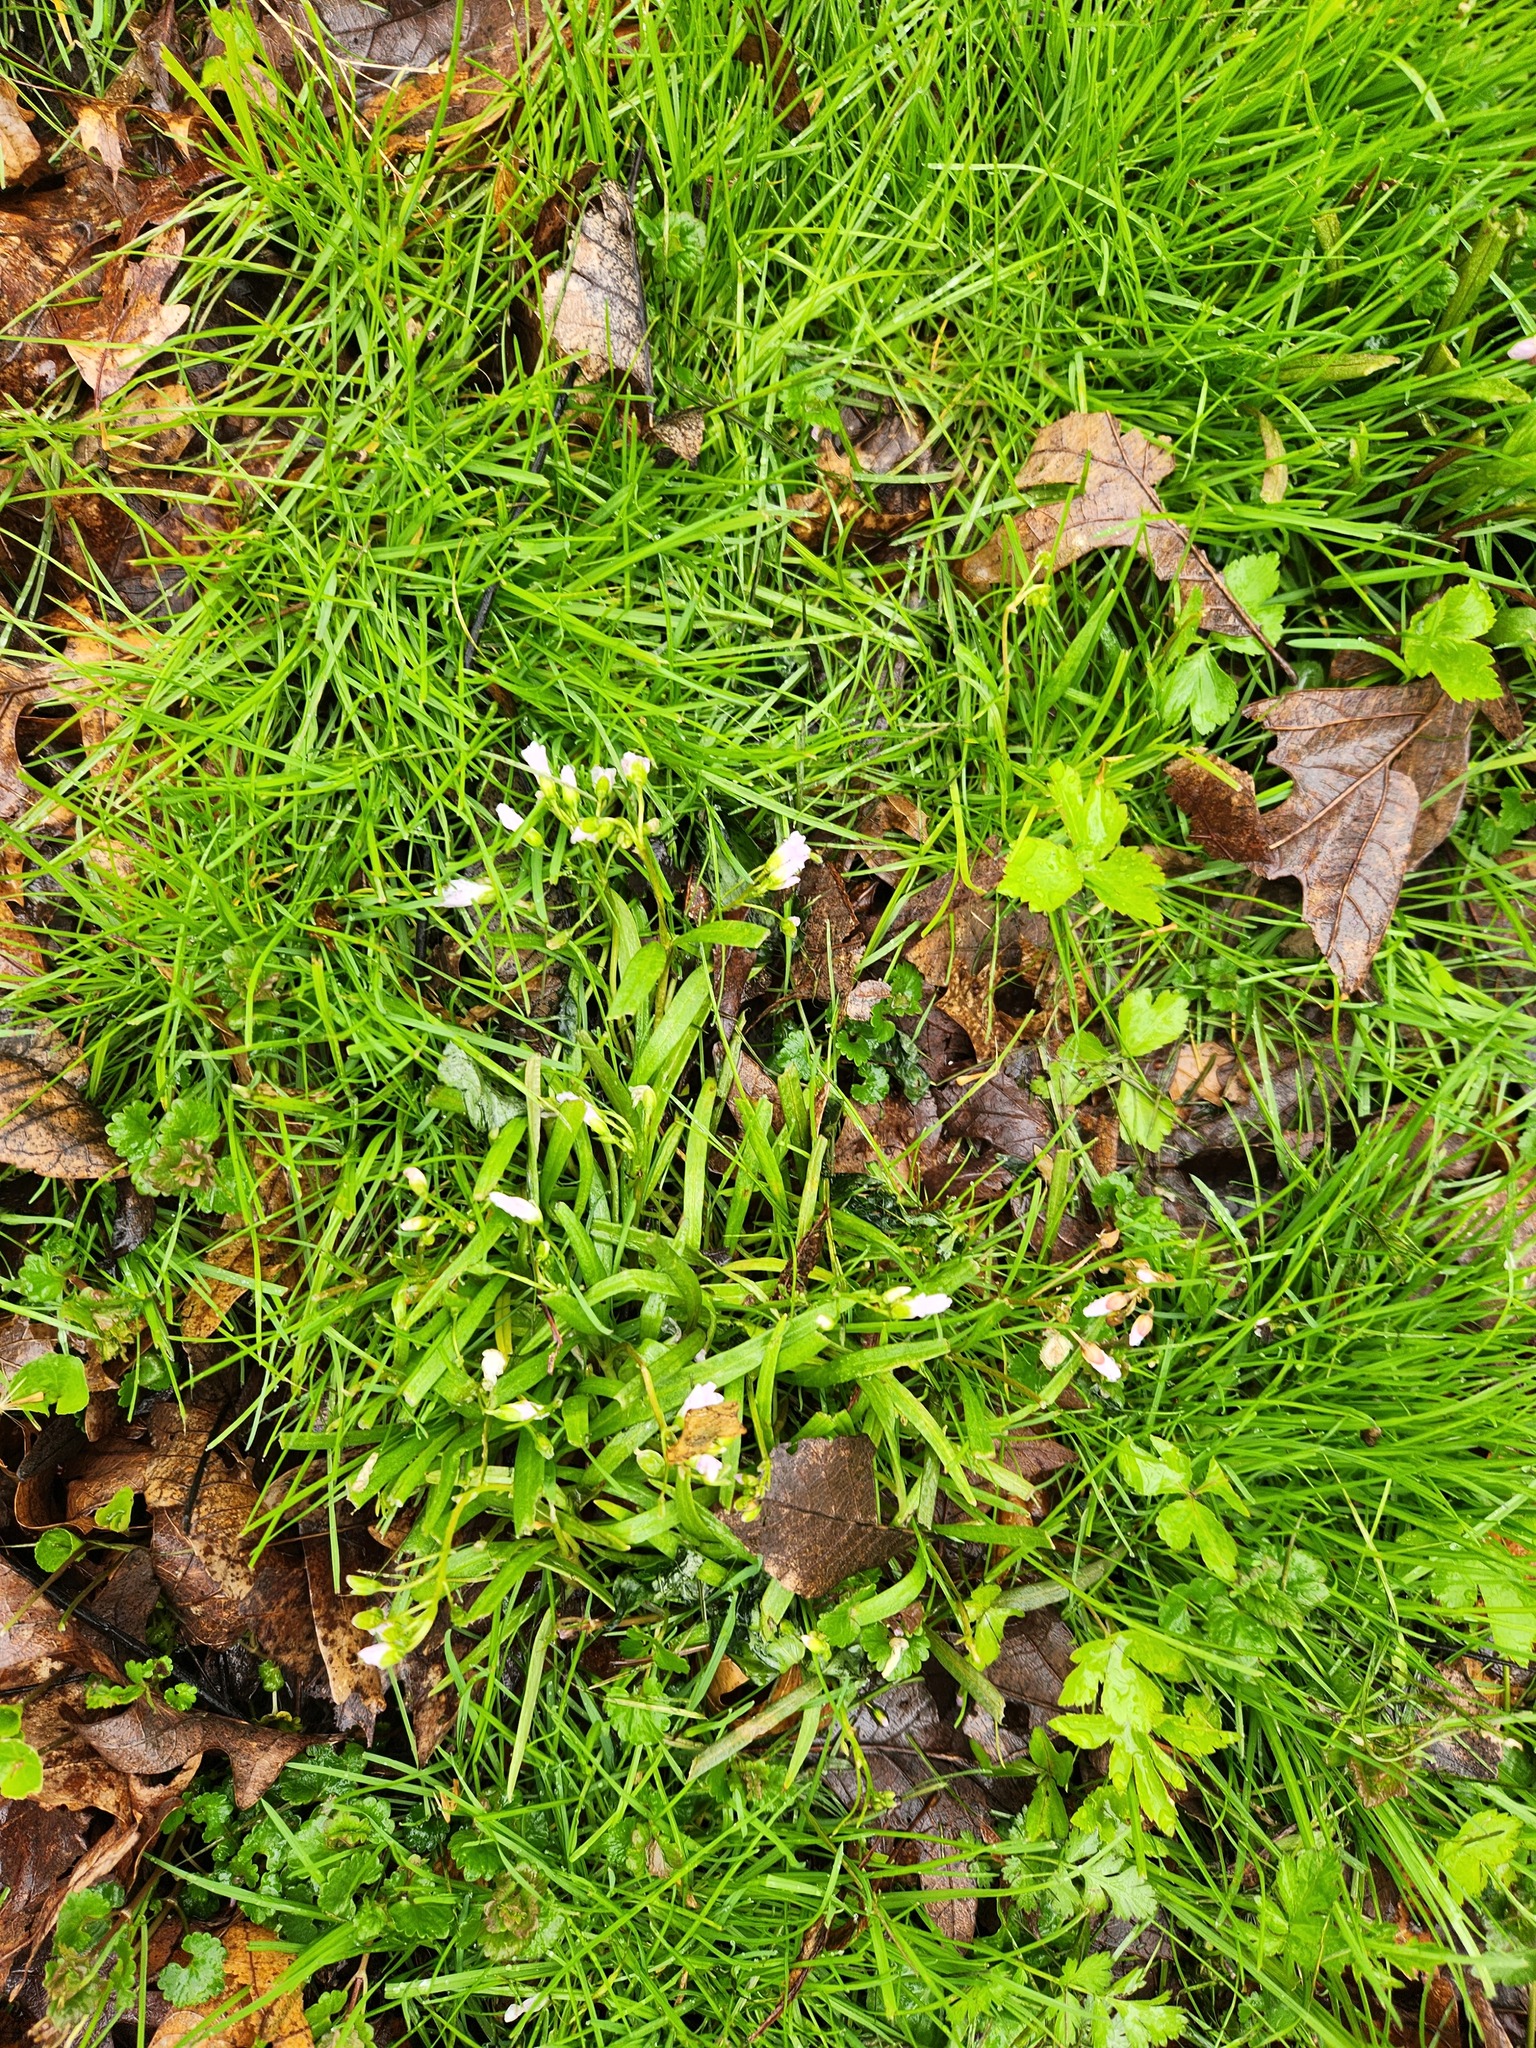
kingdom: Plantae
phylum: Tracheophyta
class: Magnoliopsida
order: Caryophyllales
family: Montiaceae
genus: Claytonia
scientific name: Claytonia virginica
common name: Virginia springbeauty
